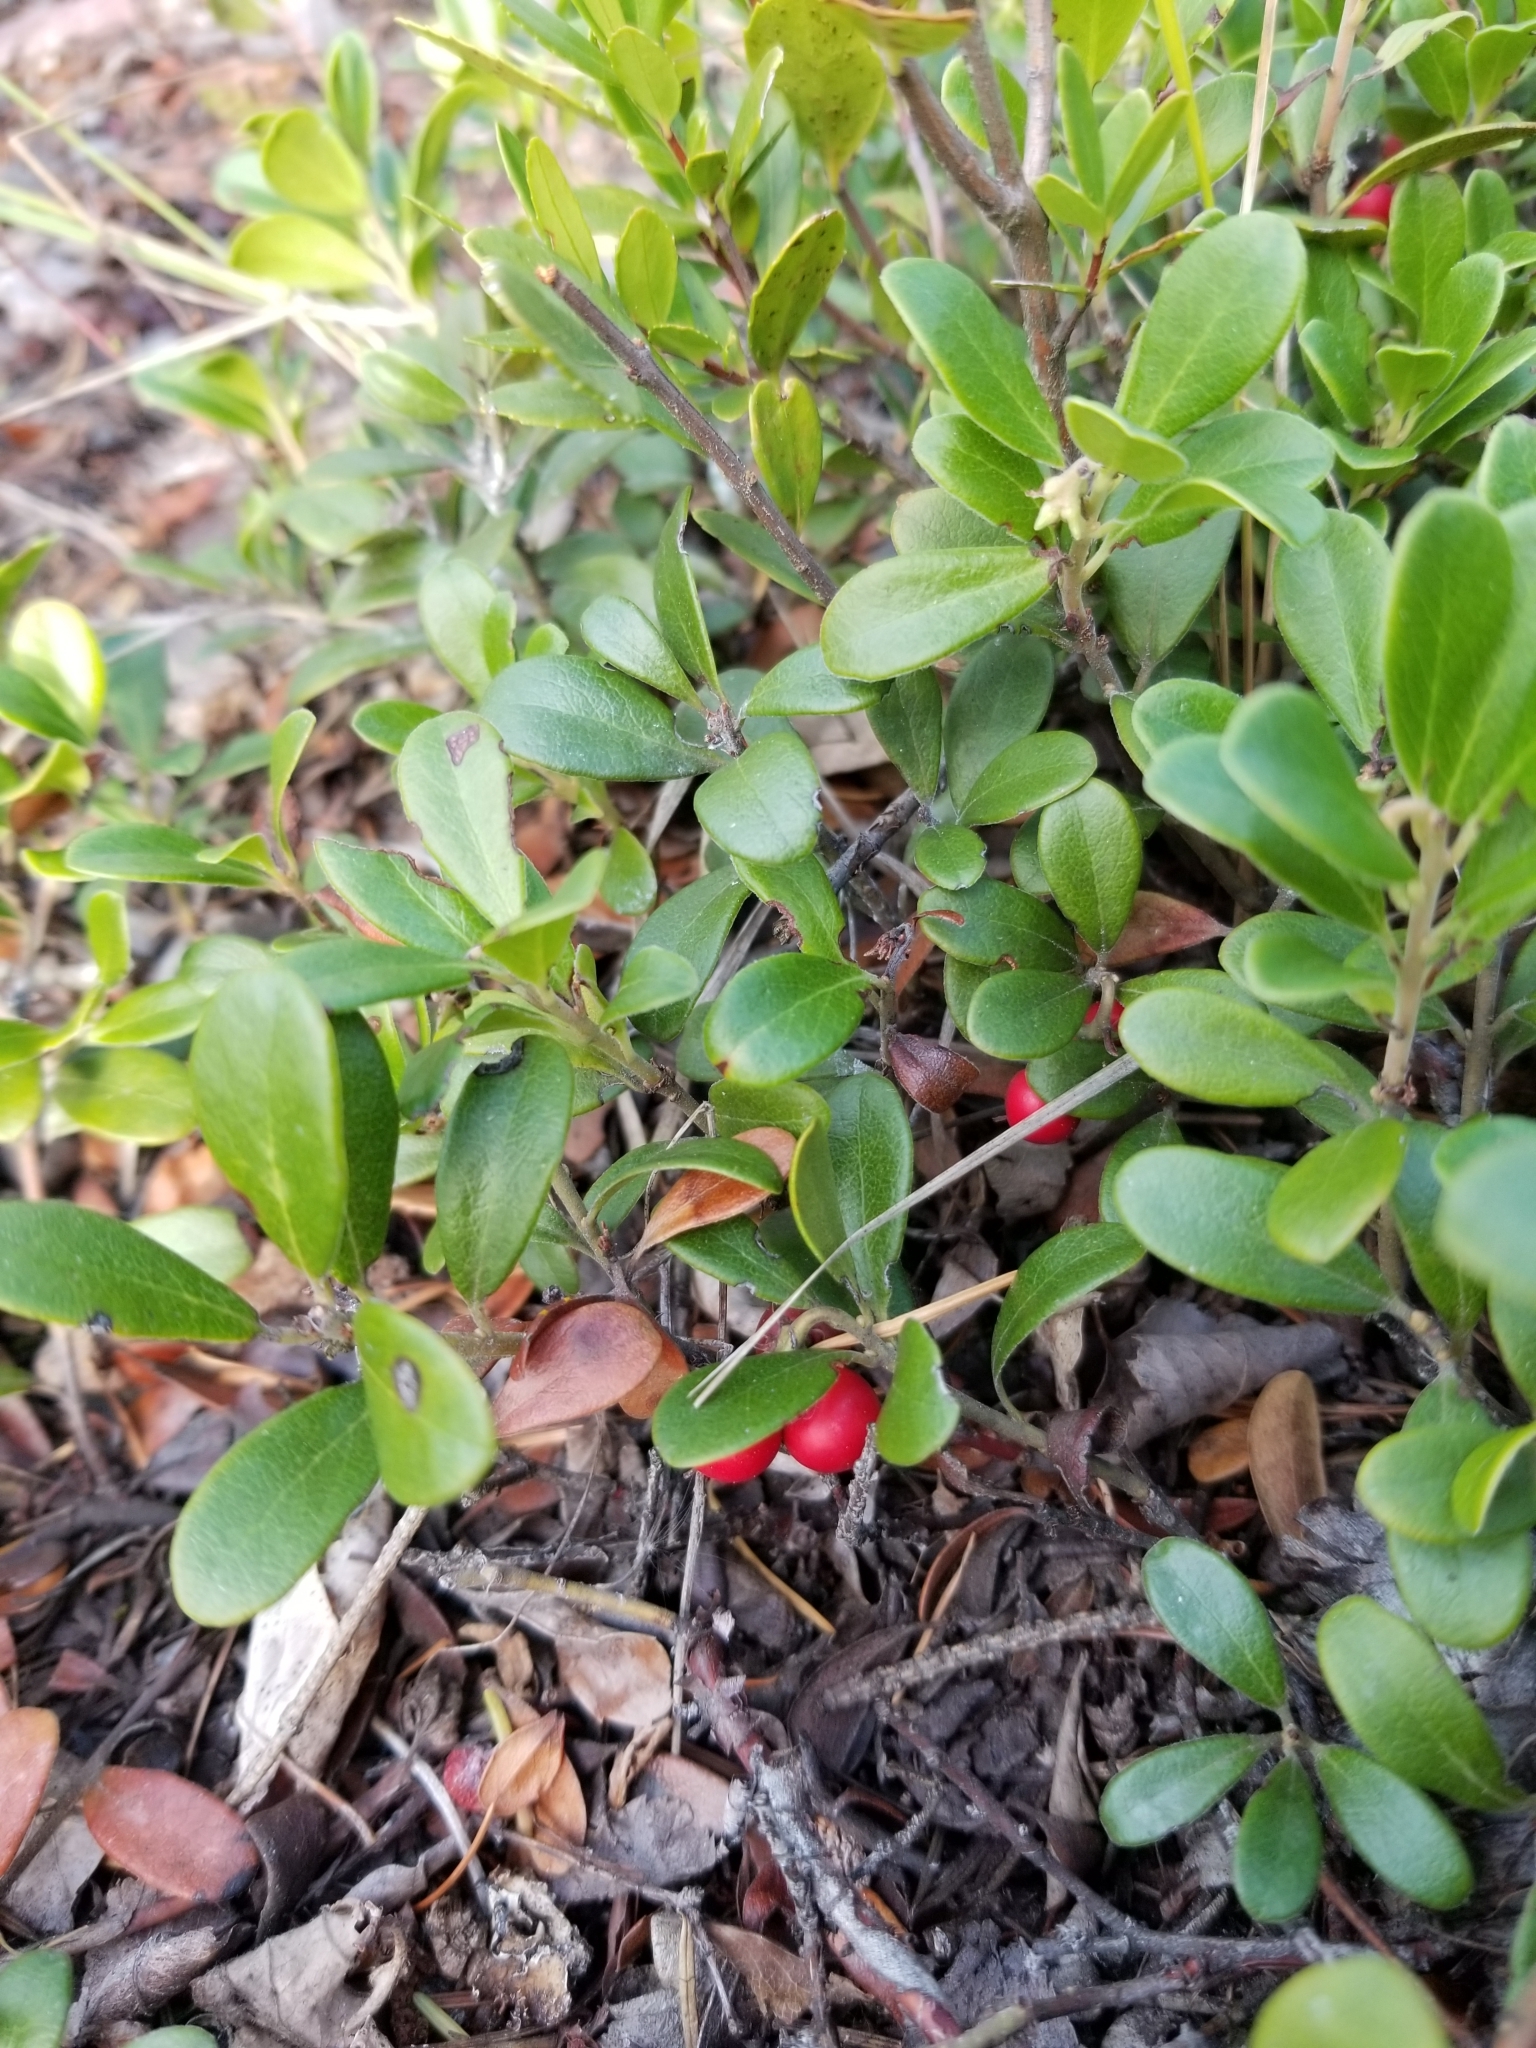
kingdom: Plantae
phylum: Tracheophyta
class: Magnoliopsida
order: Ericales
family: Ericaceae
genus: Arctostaphylos
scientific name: Arctostaphylos uva-ursi
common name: Bearberry
